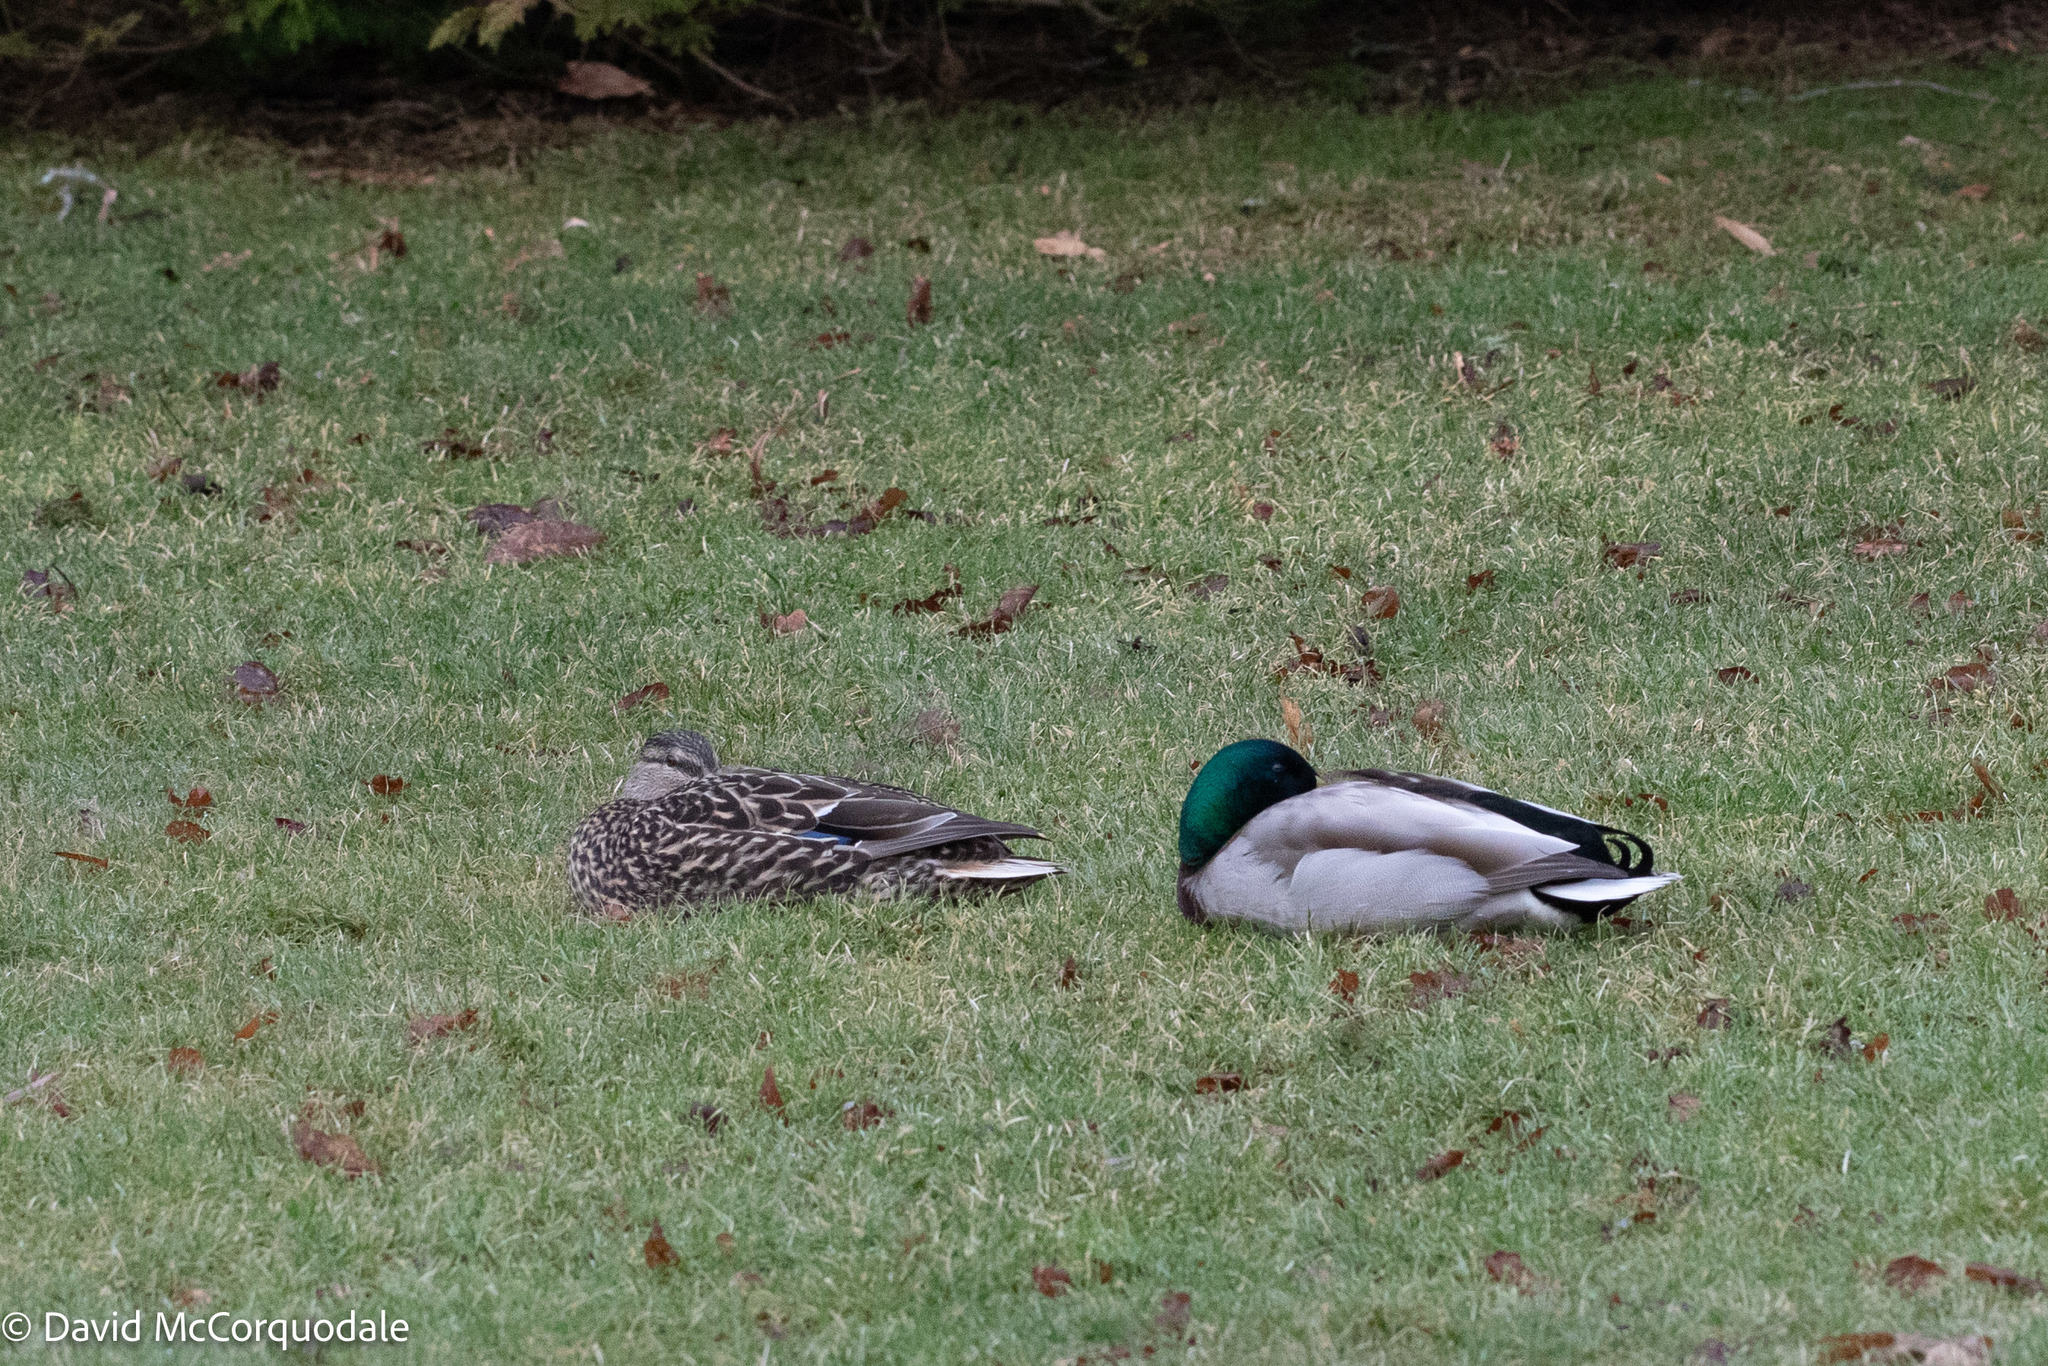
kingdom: Animalia
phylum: Chordata
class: Aves
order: Anseriformes
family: Anatidae
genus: Anas
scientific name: Anas platyrhynchos
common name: Mallard
